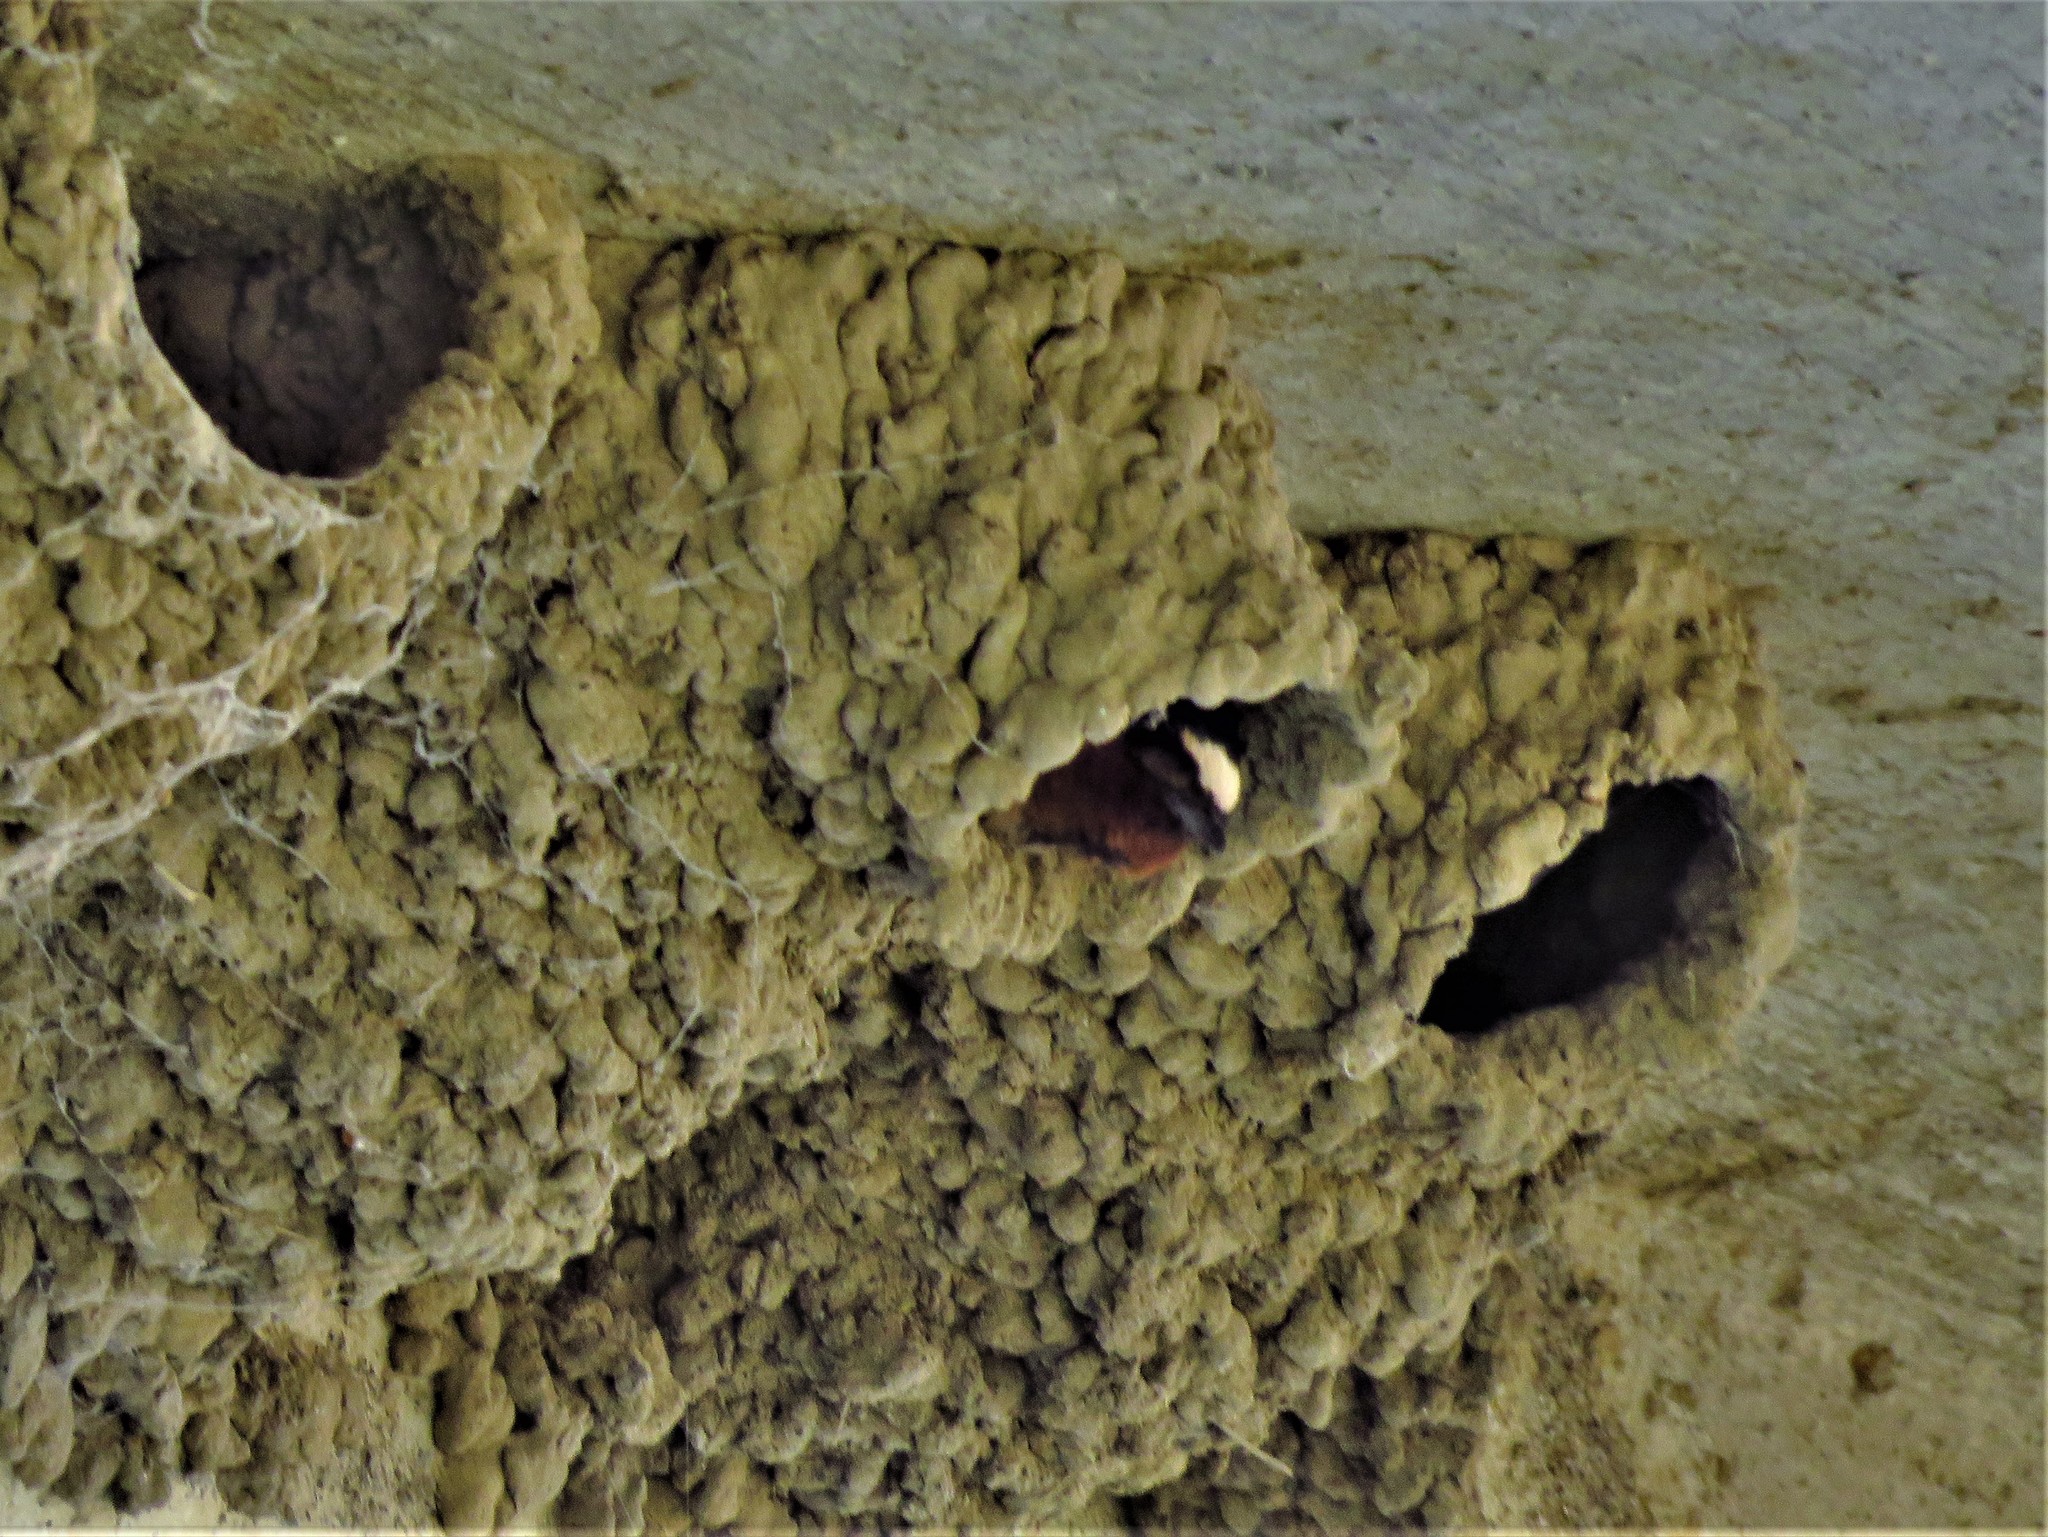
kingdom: Animalia
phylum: Chordata
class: Aves
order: Passeriformes
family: Hirundinidae
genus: Petrochelidon
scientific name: Petrochelidon pyrrhonota
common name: American cliff swallow
